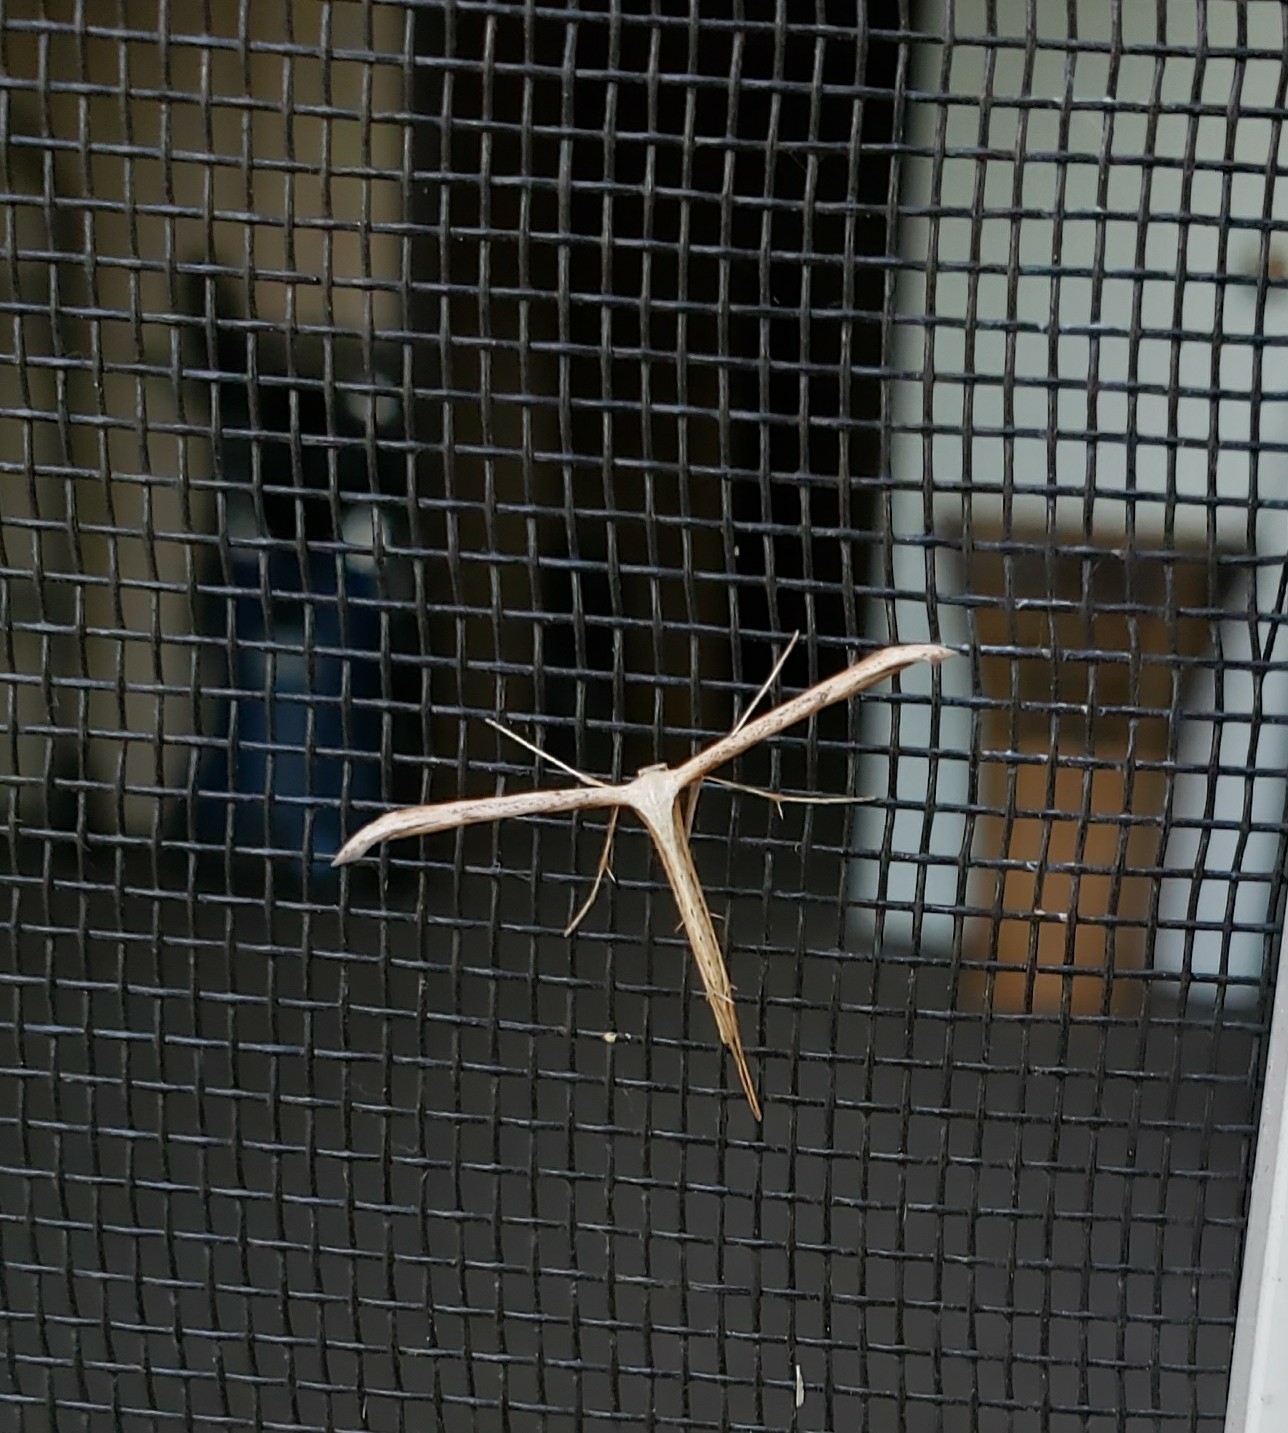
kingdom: Animalia
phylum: Arthropoda
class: Insecta
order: Lepidoptera
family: Pterophoridae
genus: Emmelina
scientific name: Emmelina monodactyla
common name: Common plume
